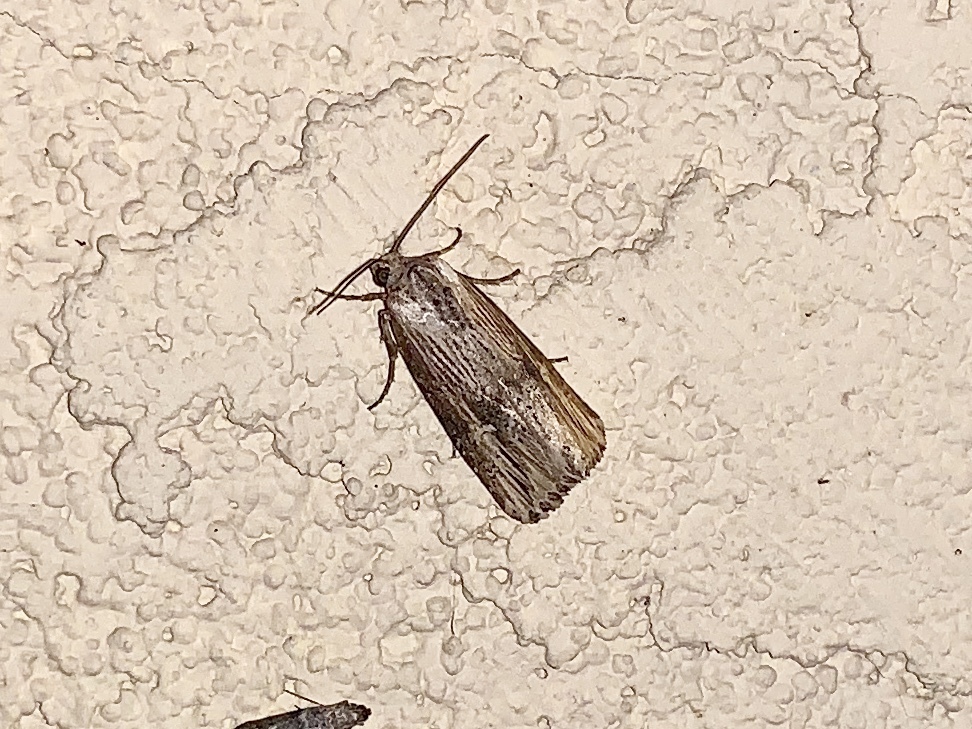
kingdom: Animalia
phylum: Arthropoda
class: Insecta
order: Lepidoptera
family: Noctuidae
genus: Crambodes
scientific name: Crambodes talidiformis
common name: Verbena moth
